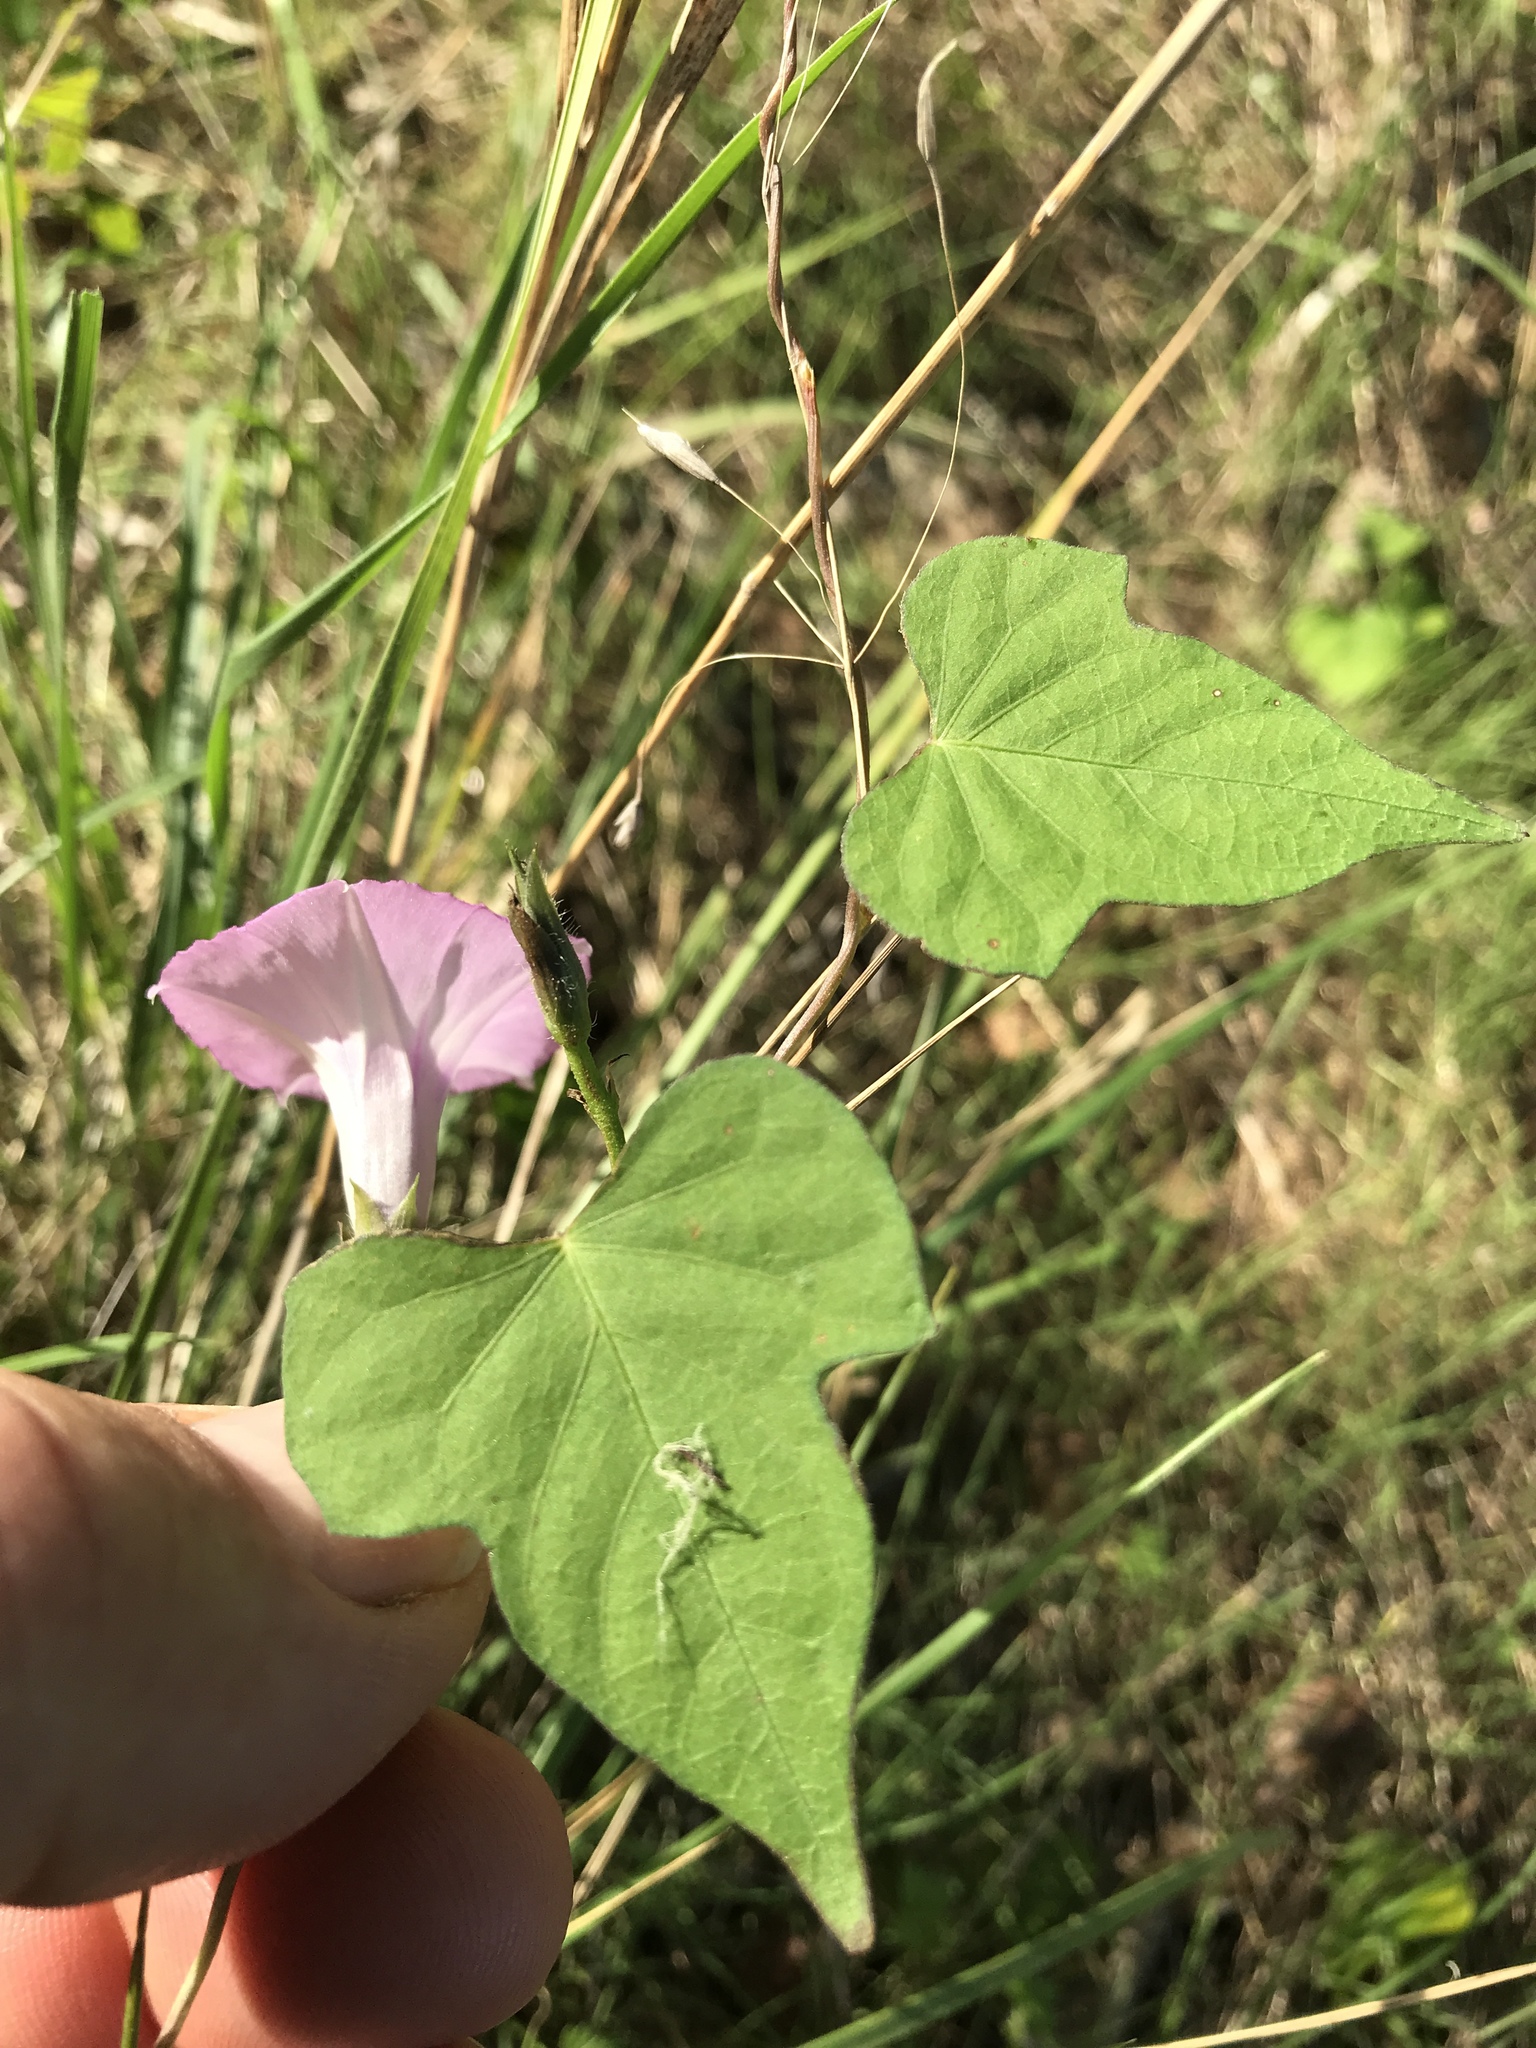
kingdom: Plantae
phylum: Tracheophyta
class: Magnoliopsida
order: Solanales
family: Convolvulaceae
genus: Ipomoea
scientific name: Ipomoea cordatotriloba
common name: Cotton morning glory
